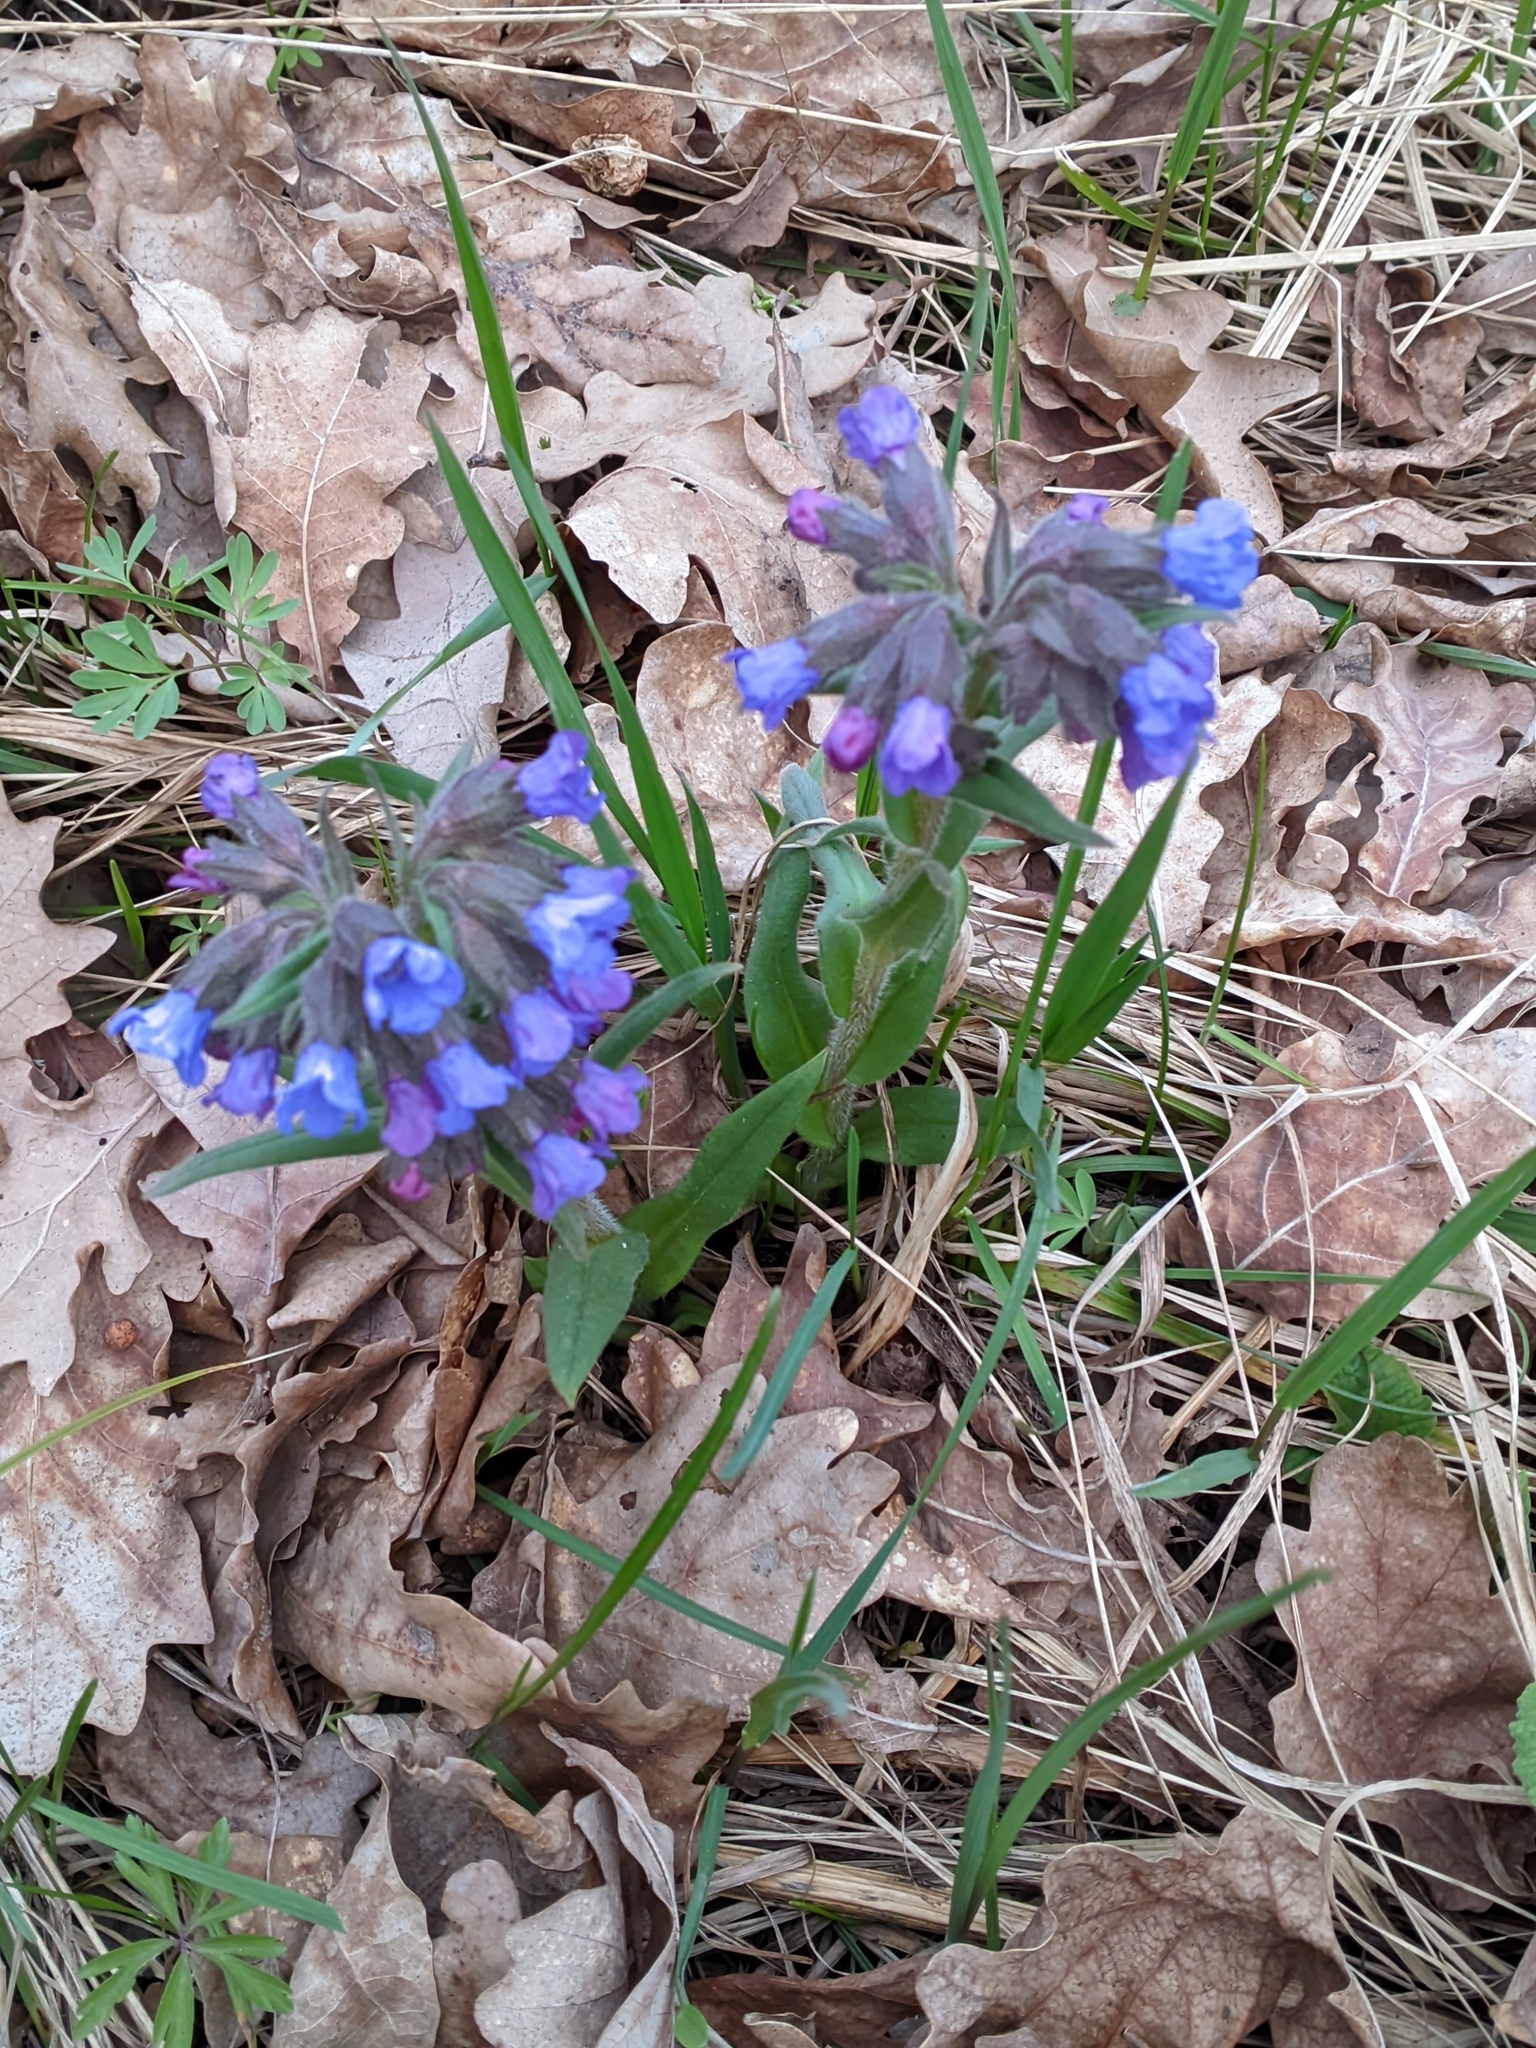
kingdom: Plantae
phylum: Tracheophyta
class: Magnoliopsida
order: Boraginales
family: Boraginaceae
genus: Pulmonaria
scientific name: Pulmonaria angustifolia
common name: Blue cowslip
